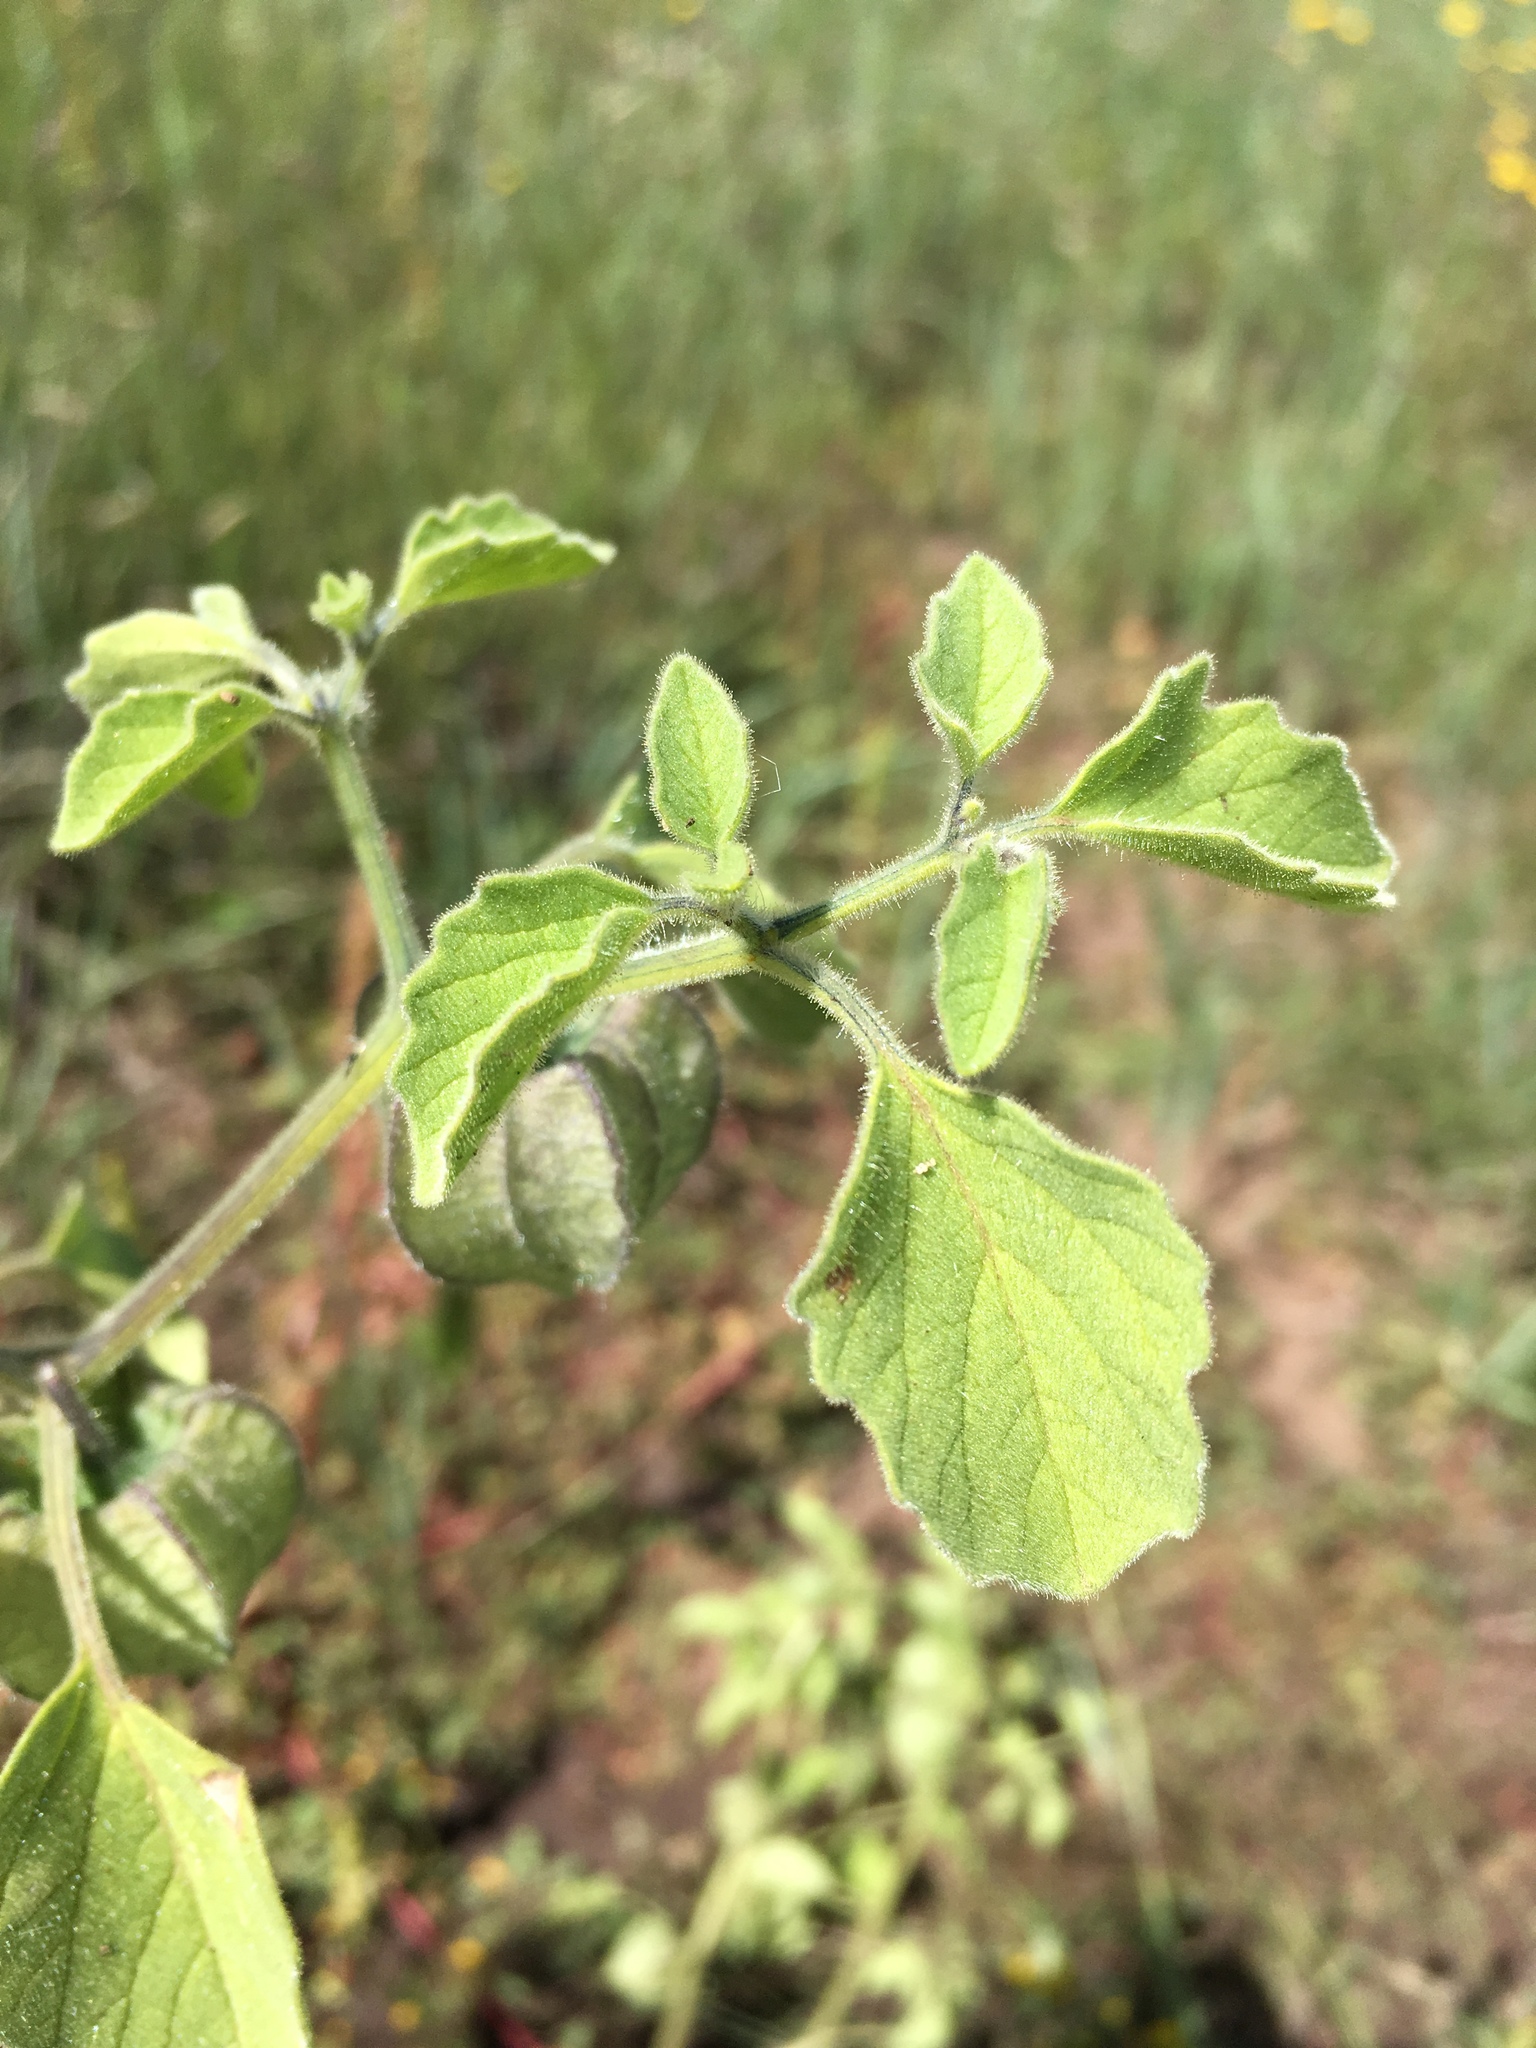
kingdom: Plantae
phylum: Tracheophyta
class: Magnoliopsida
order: Solanales
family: Solanaceae
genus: Physalis
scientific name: Physalis neomexicana
